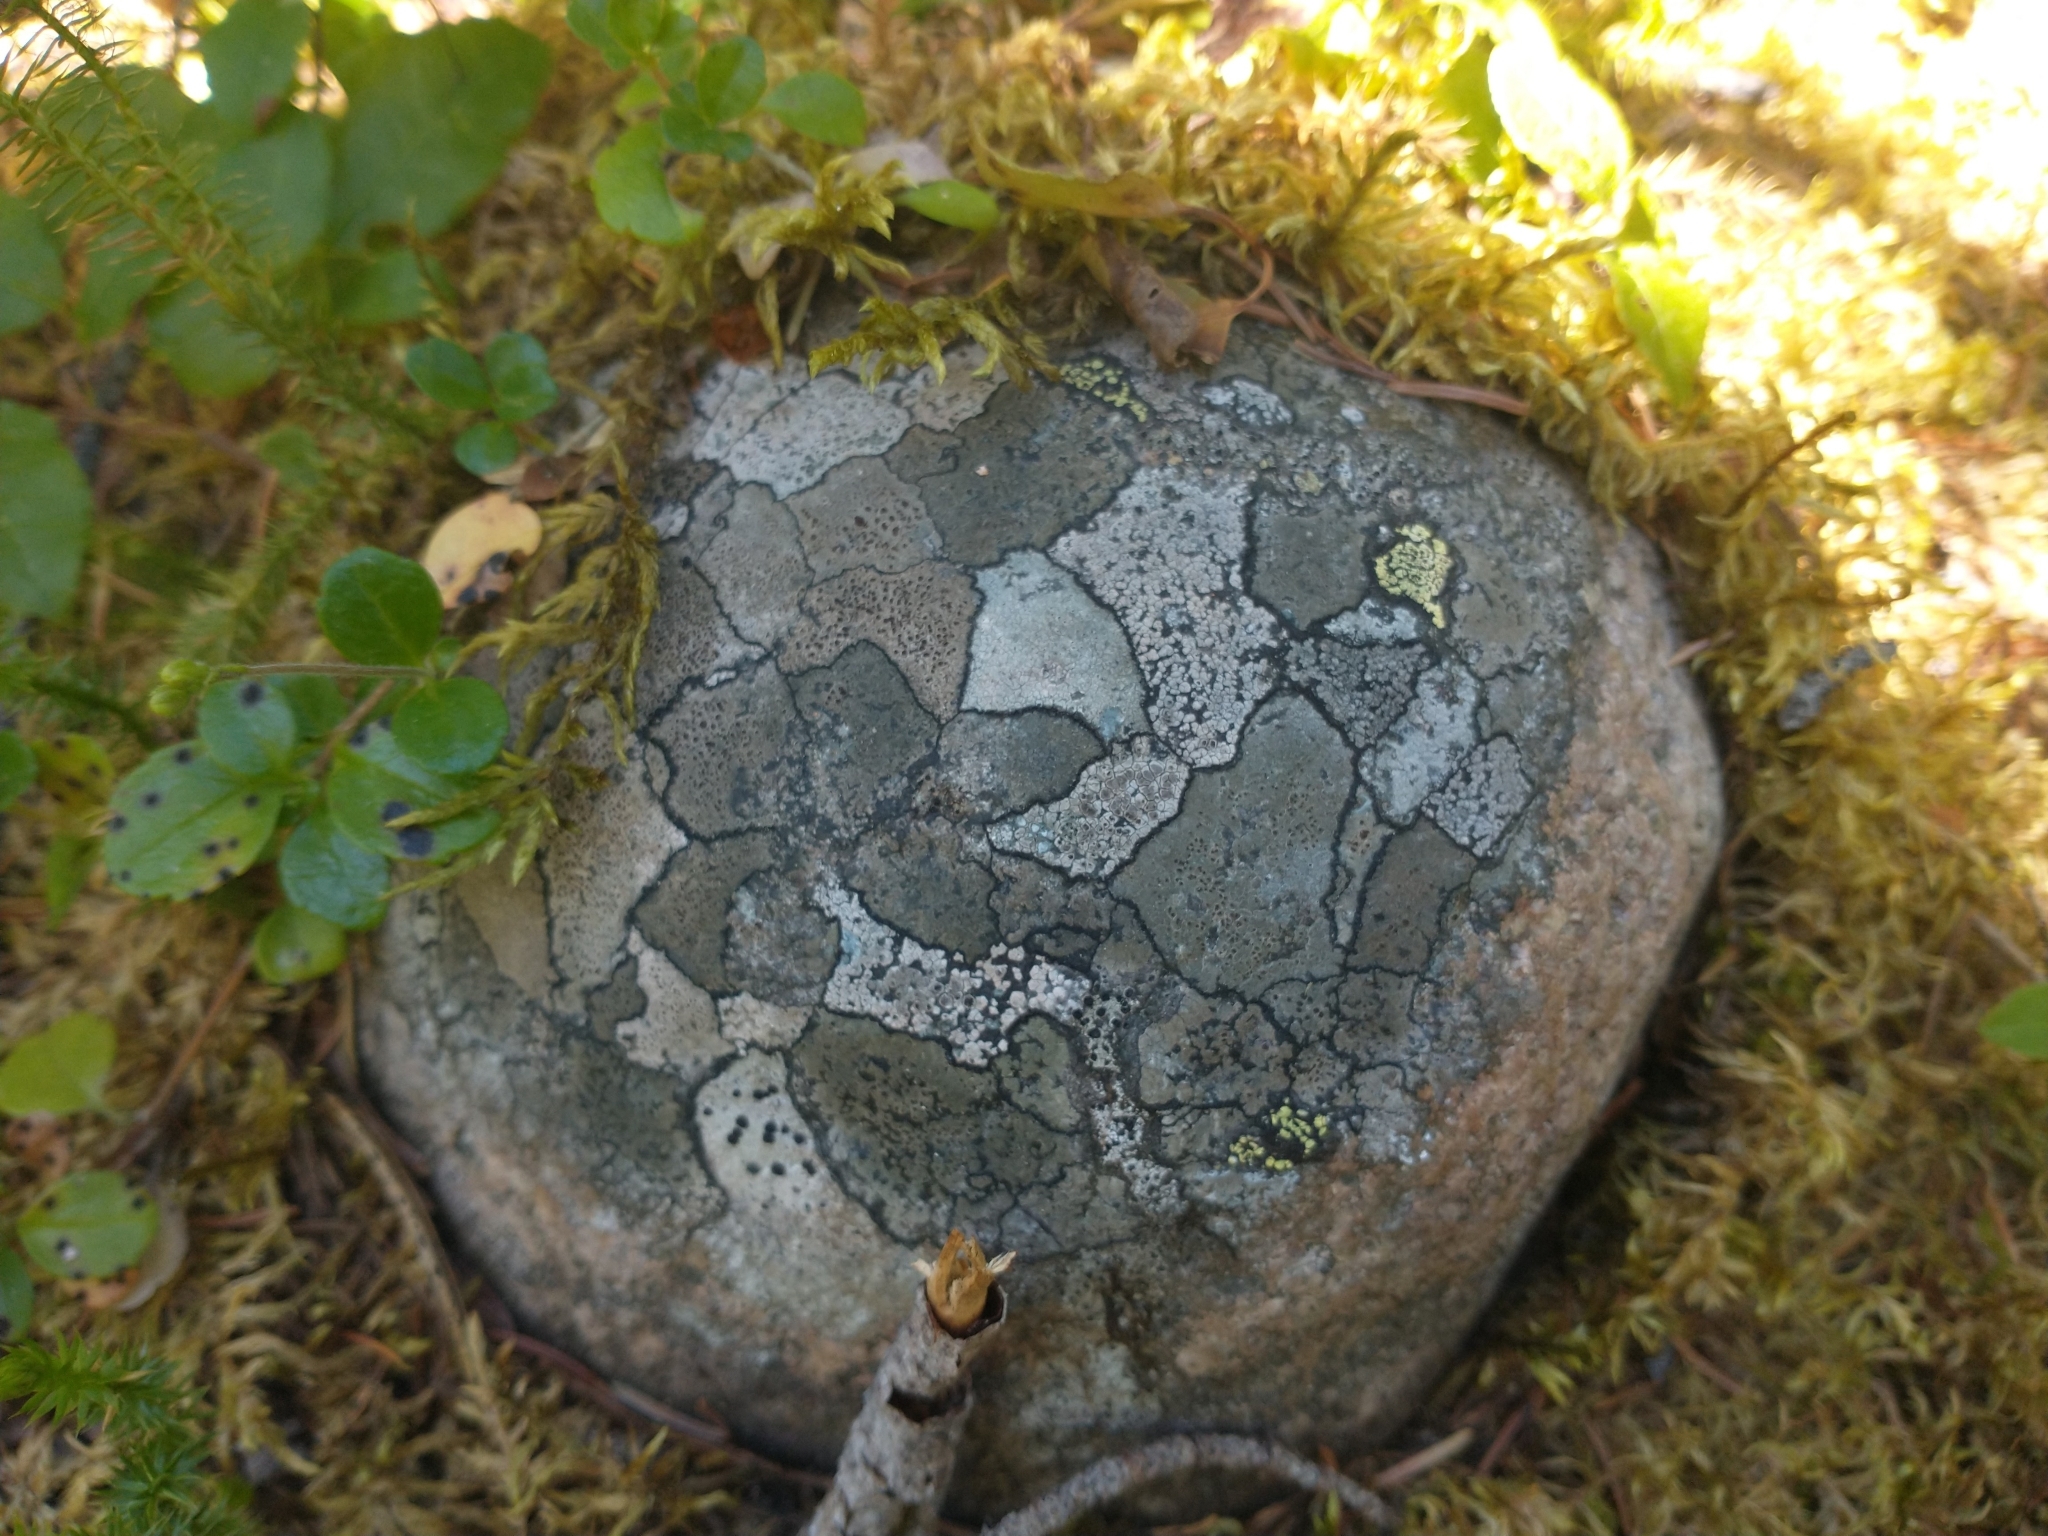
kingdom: Fungi
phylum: Ascomycota
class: Lecanoromycetes
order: Rhizocarpales
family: Rhizocarpaceae
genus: Rhizocarpon
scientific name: Rhizocarpon geographicum
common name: Yellow map lichen
